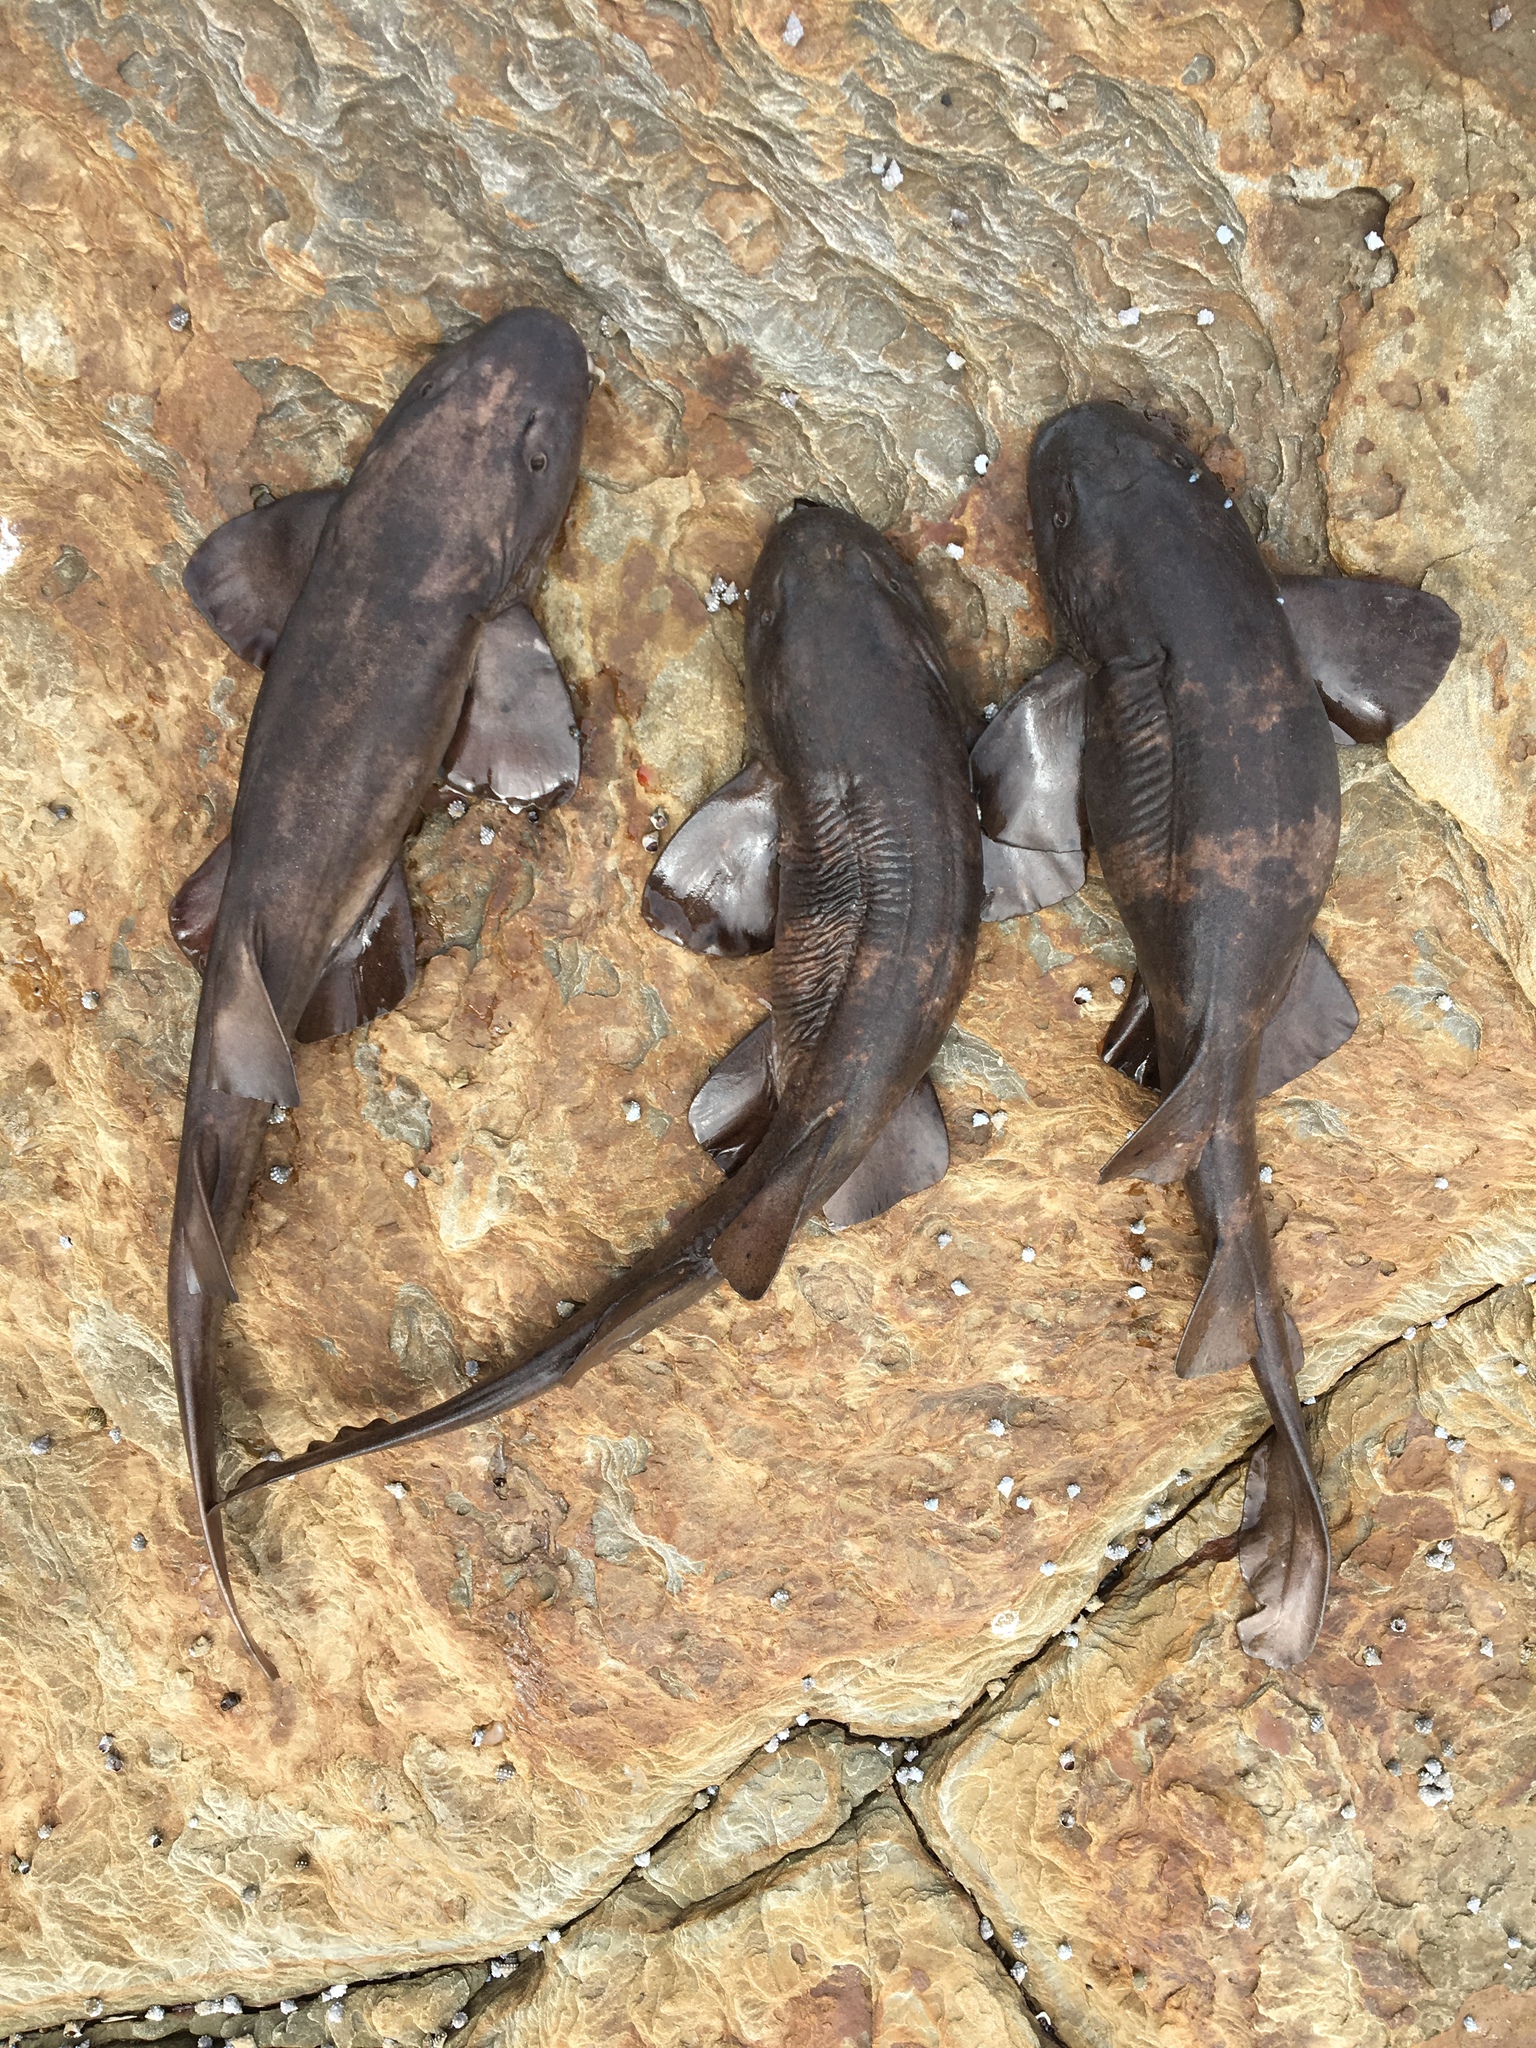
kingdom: Animalia
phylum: Chordata
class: Elasmobranchii
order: Orectolobiformes
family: Brachaeluridae
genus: Brachaelurus
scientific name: Brachaelurus waddi
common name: Blind shark
